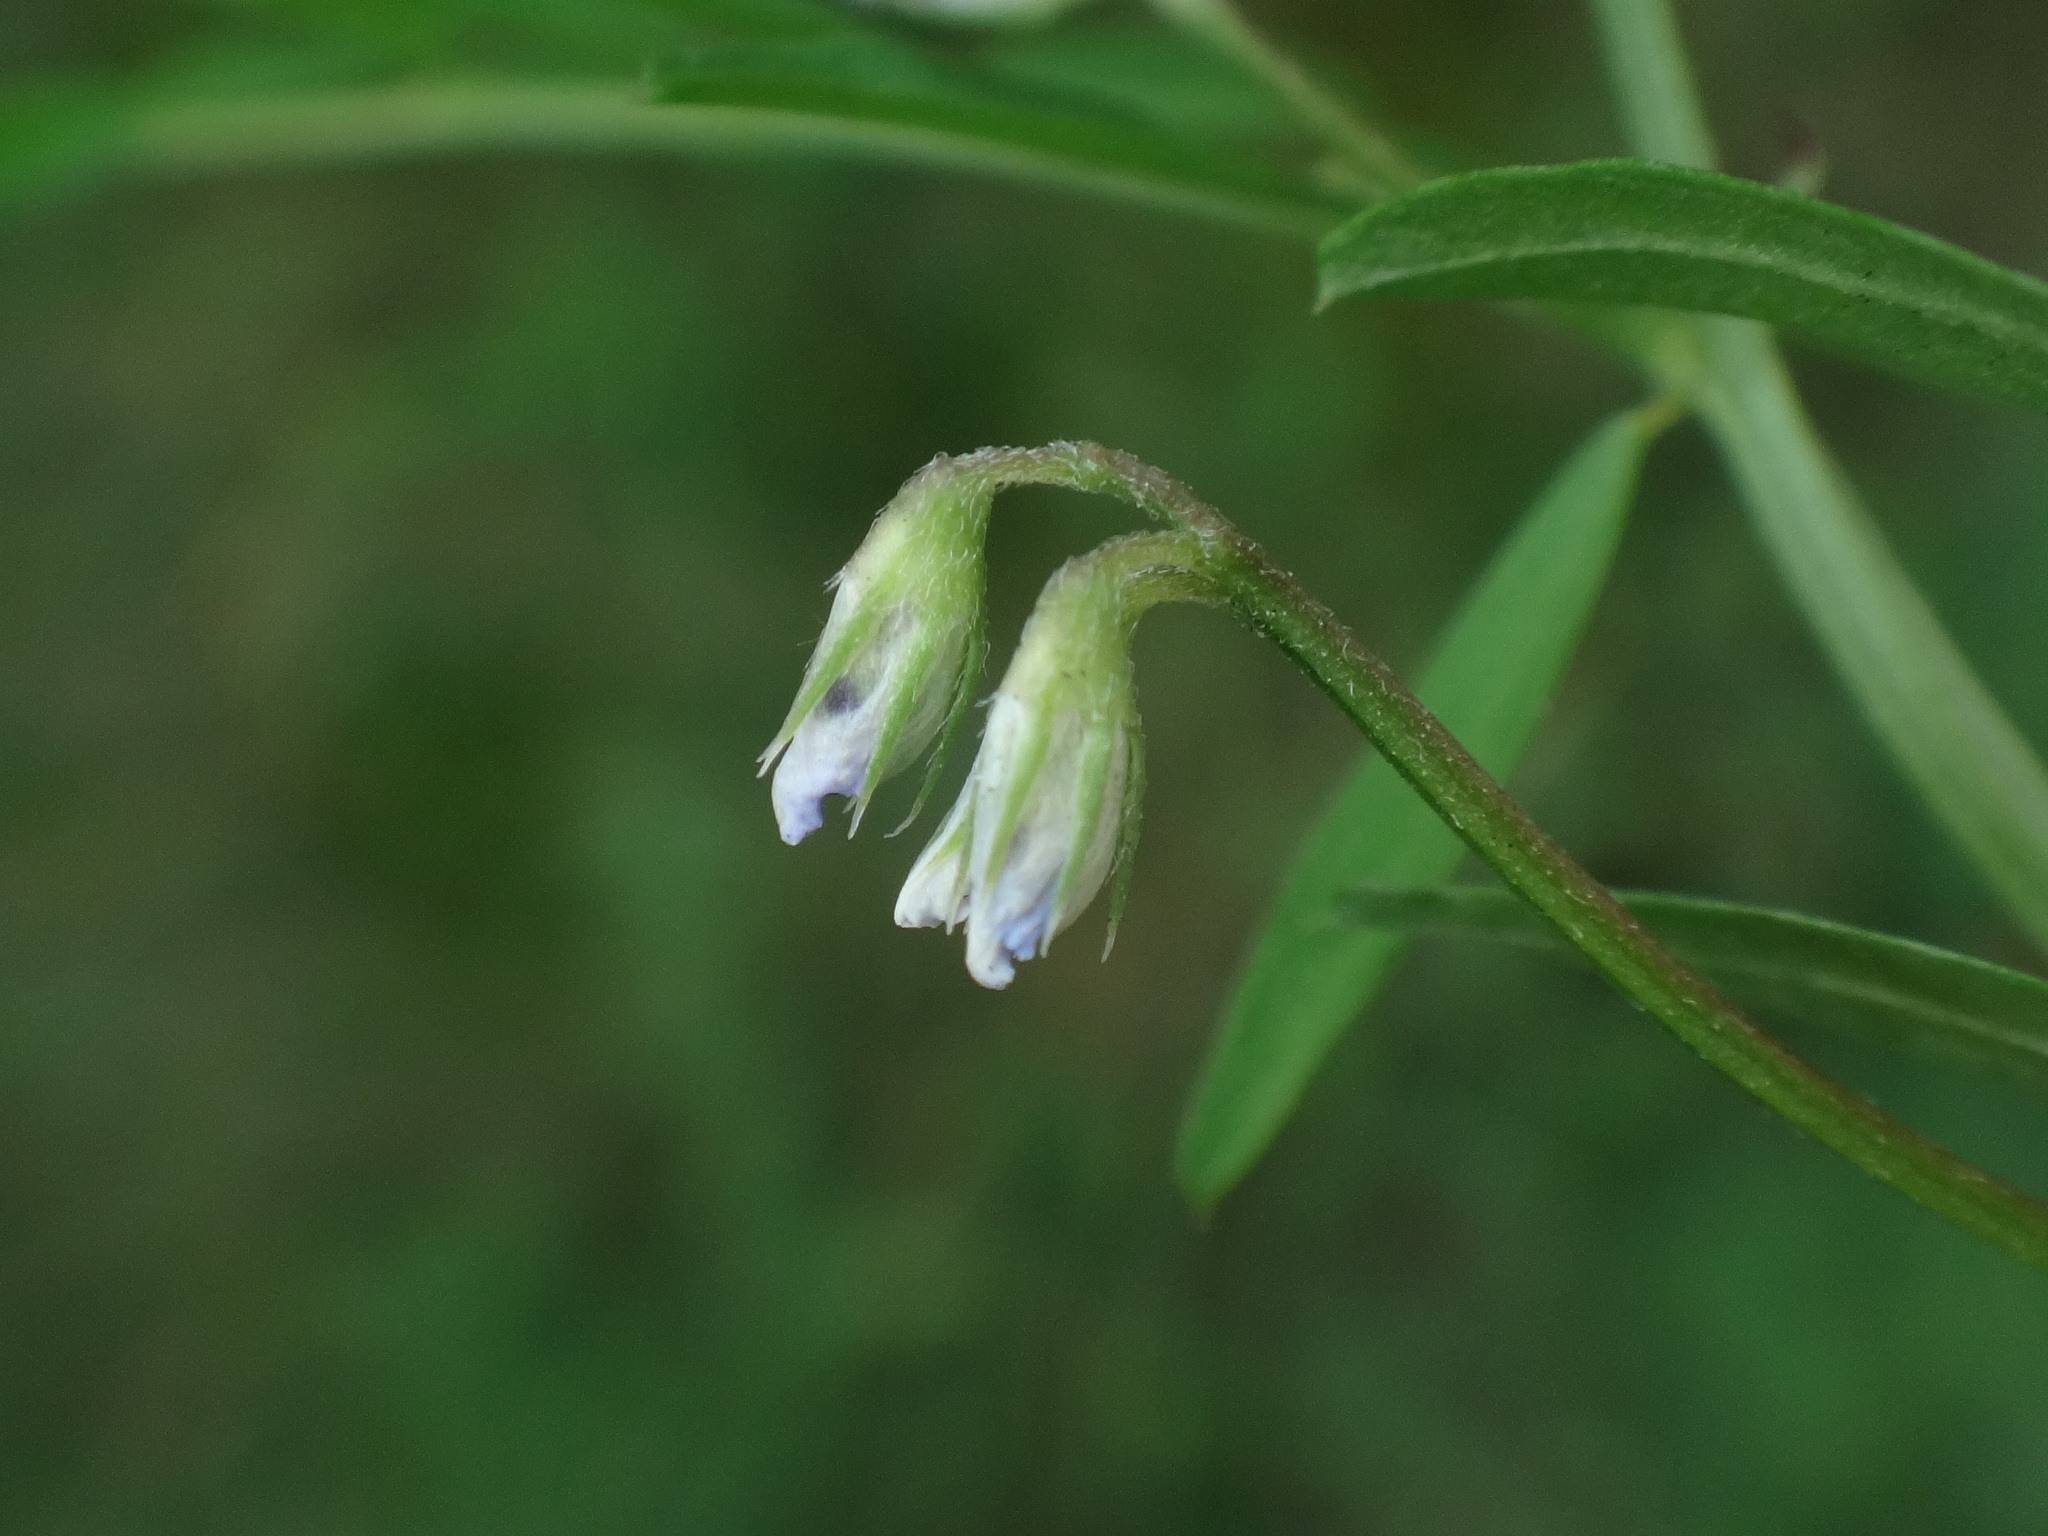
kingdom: Plantae
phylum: Tracheophyta
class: Magnoliopsida
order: Fabales
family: Fabaceae
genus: Vicia
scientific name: Vicia hirsuta
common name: Tiny vetch
